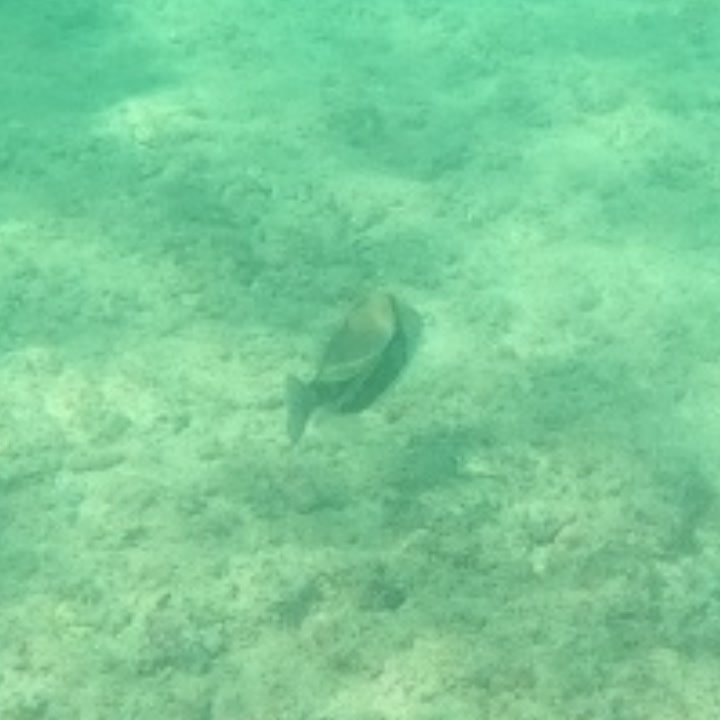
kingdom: Animalia
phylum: Chordata
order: Tetraodontiformes
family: Balistidae
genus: Rhinecanthus
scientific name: Rhinecanthus rectangulus
